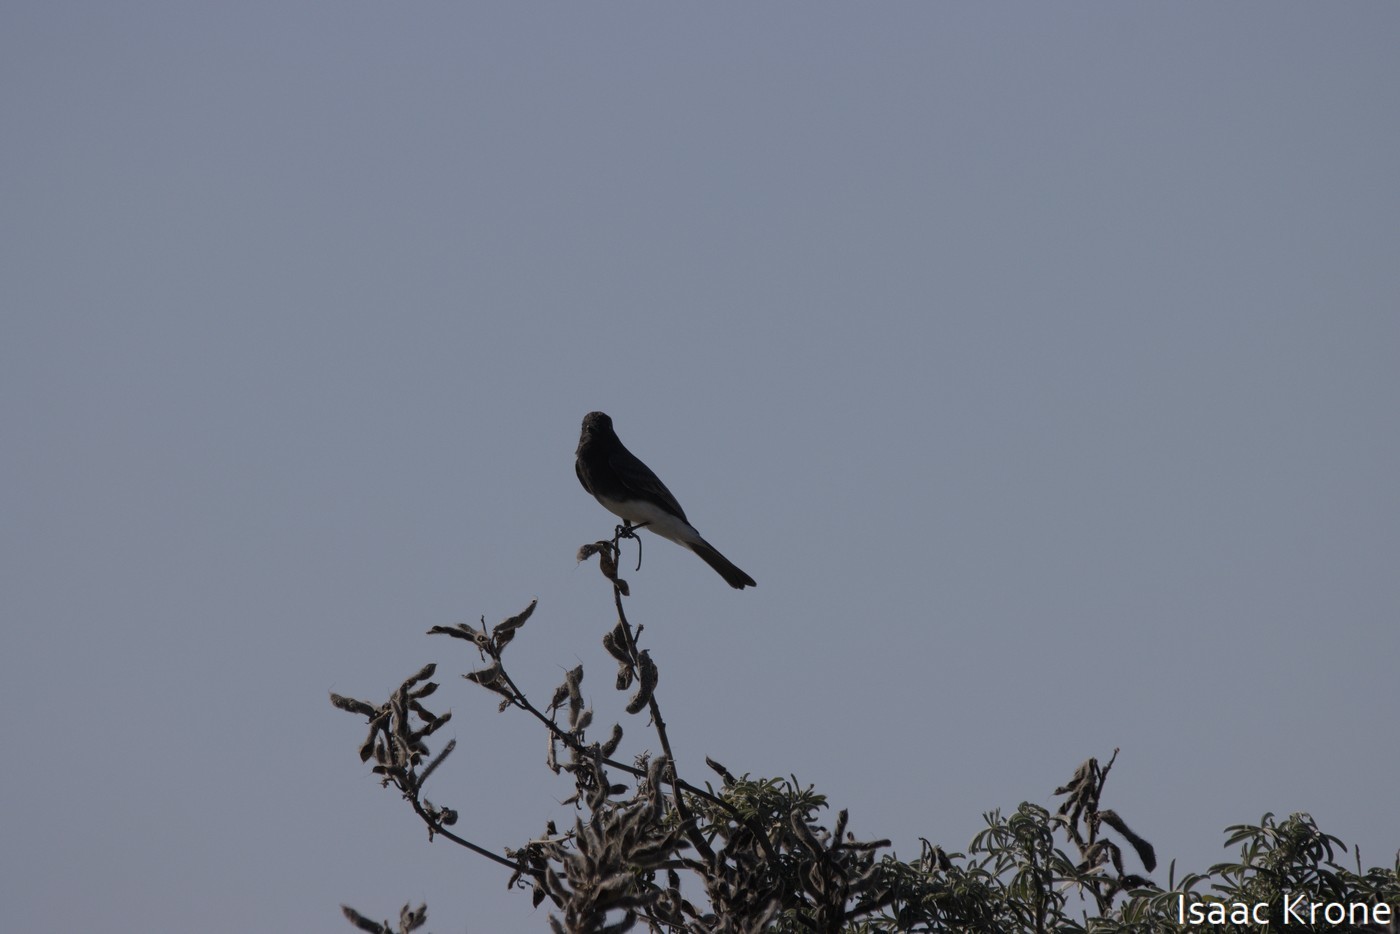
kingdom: Animalia
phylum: Chordata
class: Aves
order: Passeriformes
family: Tyrannidae
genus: Sayornis
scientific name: Sayornis nigricans
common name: Black phoebe
